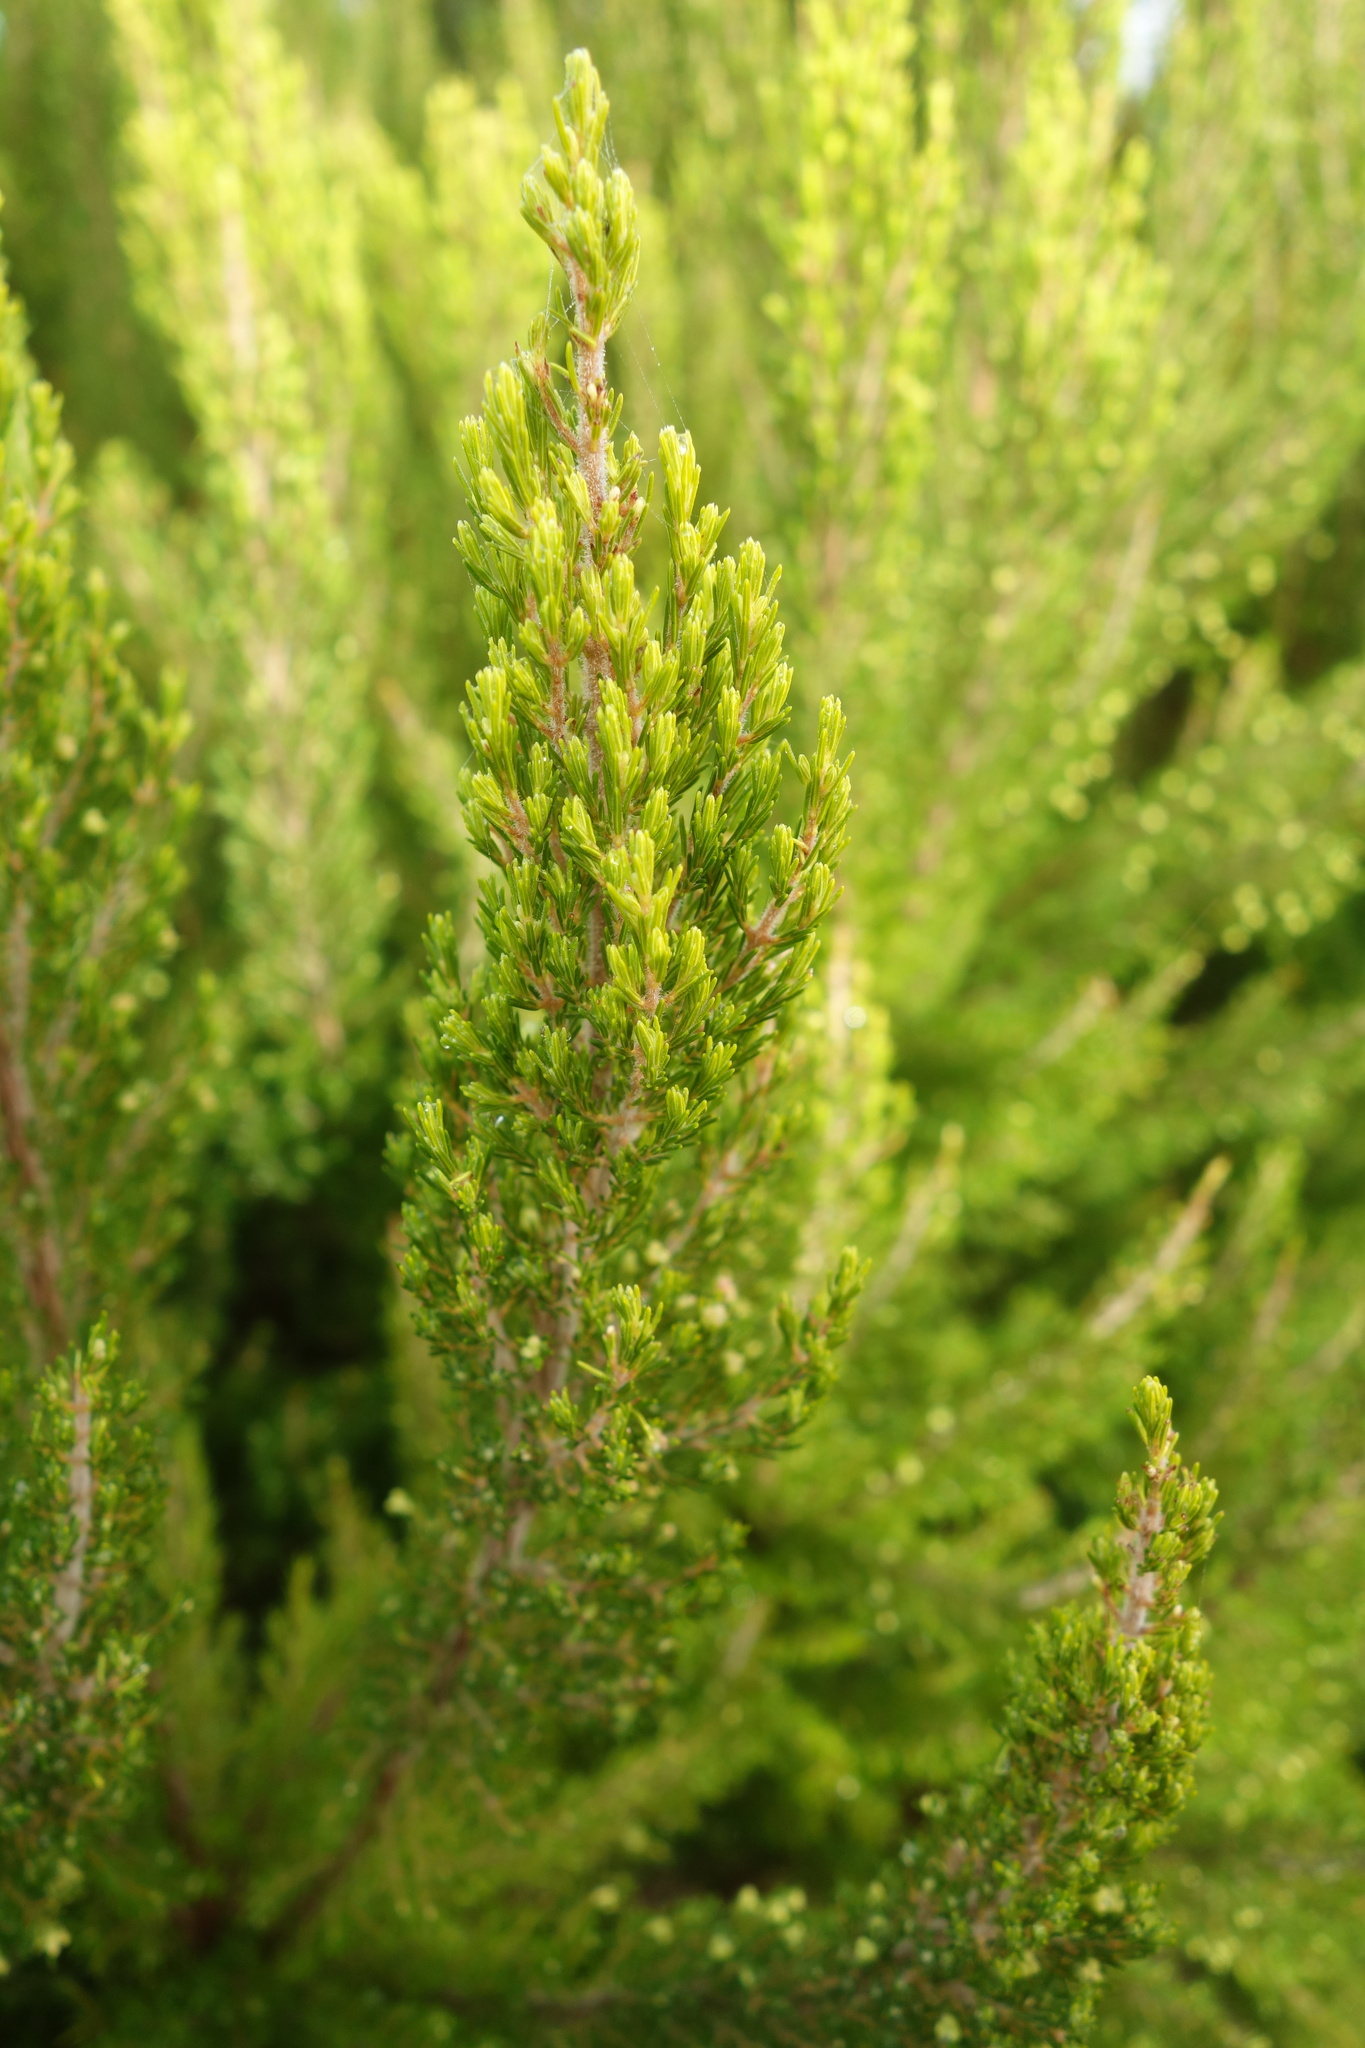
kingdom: Plantae
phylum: Tracheophyta
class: Magnoliopsida
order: Ericales
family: Ericaceae
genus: Erica
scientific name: Erica canariensis
